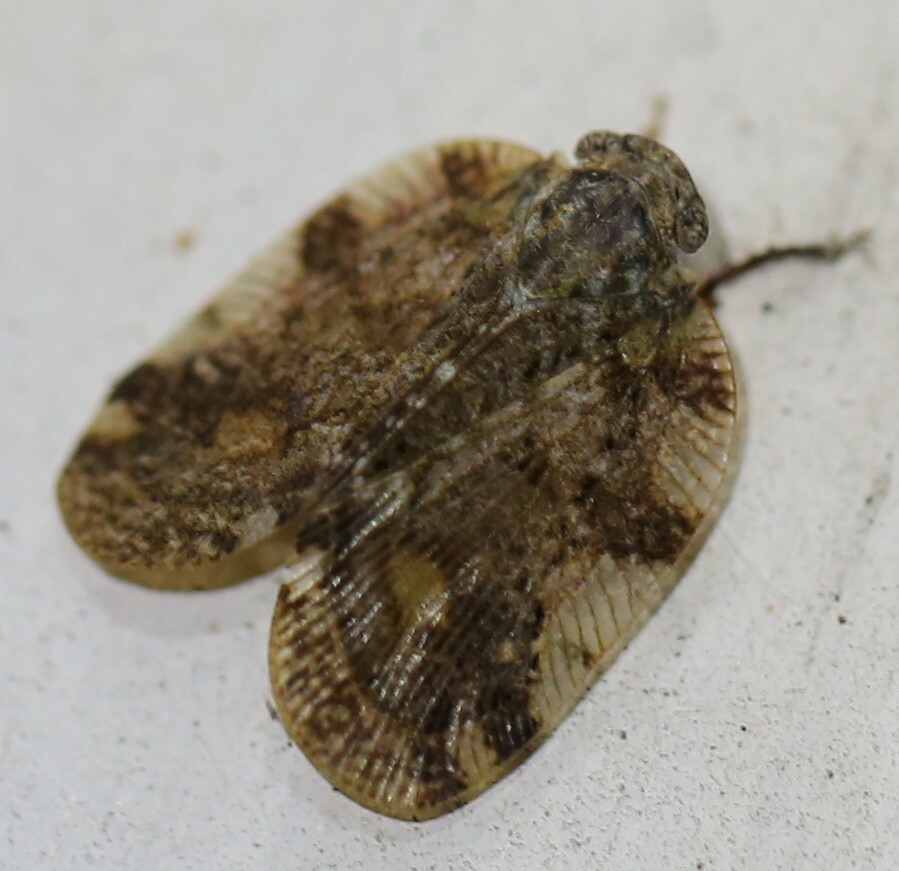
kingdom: Animalia
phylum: Arthropoda
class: Insecta
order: Hemiptera
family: Ricaniidae
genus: Aprivesa
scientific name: Aprivesa exuta
